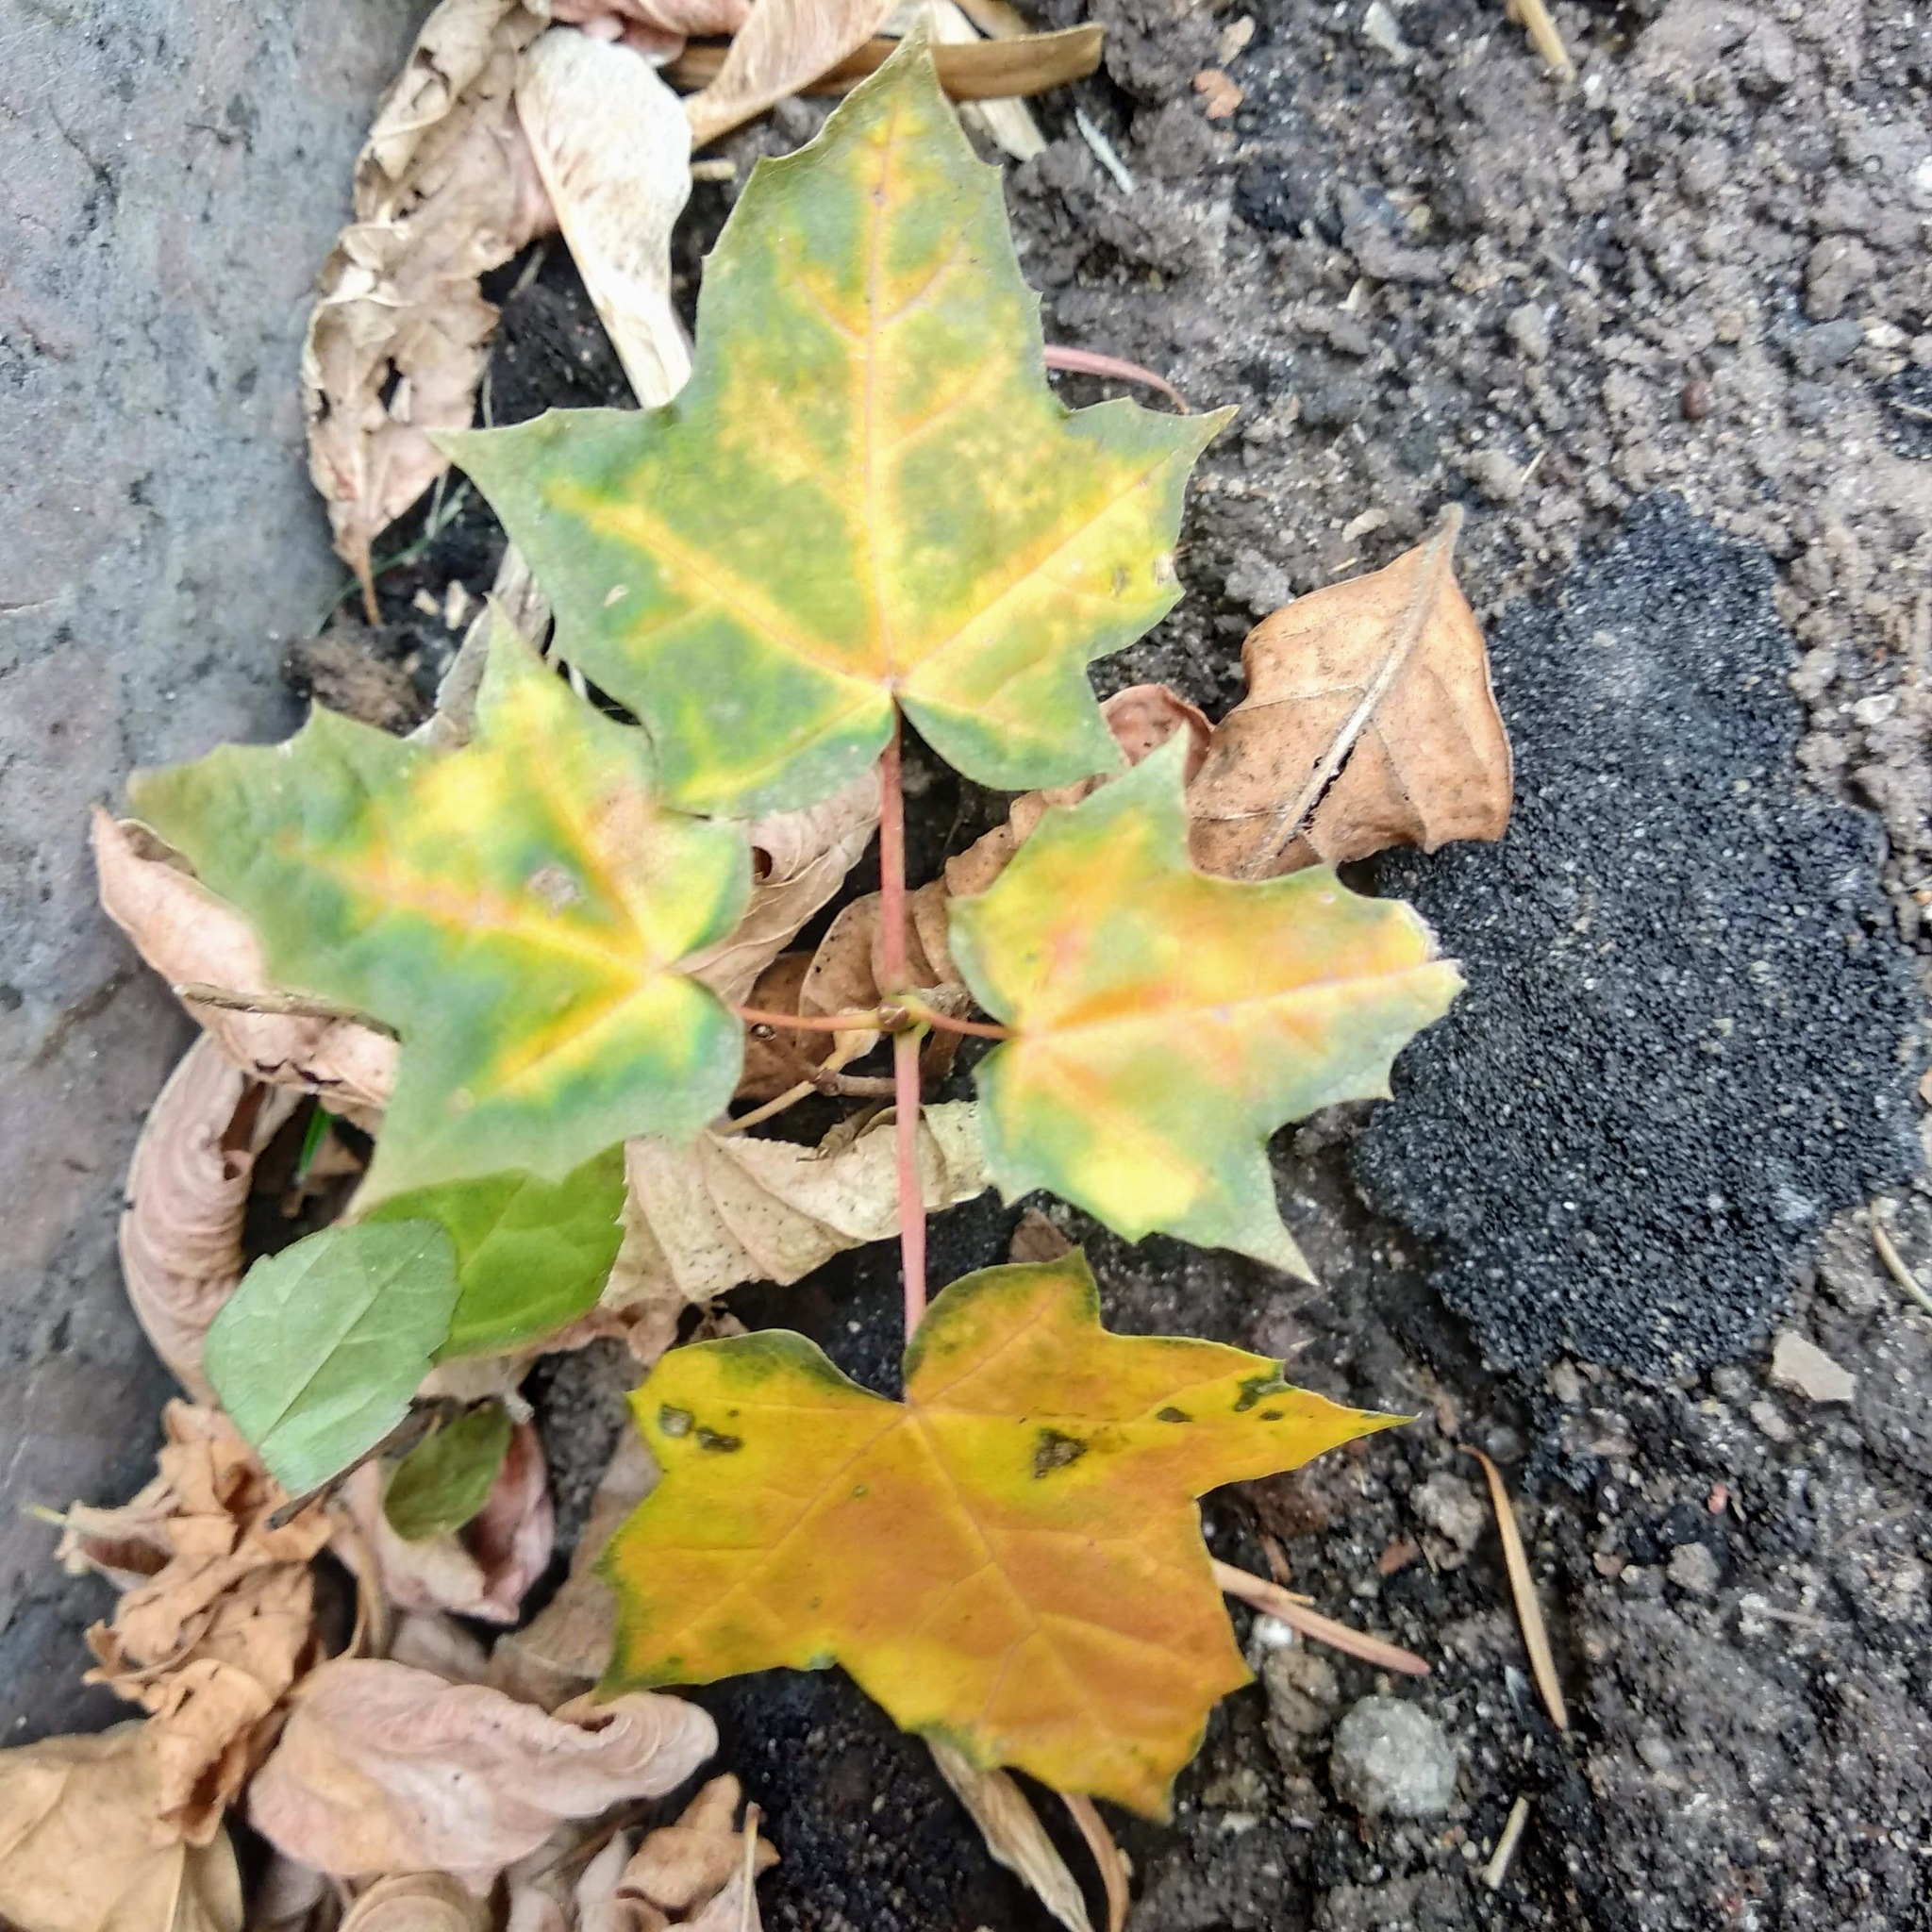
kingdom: Plantae
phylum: Tracheophyta
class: Magnoliopsida
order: Sapindales
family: Sapindaceae
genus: Acer
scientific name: Acer platanoides
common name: Norway maple
